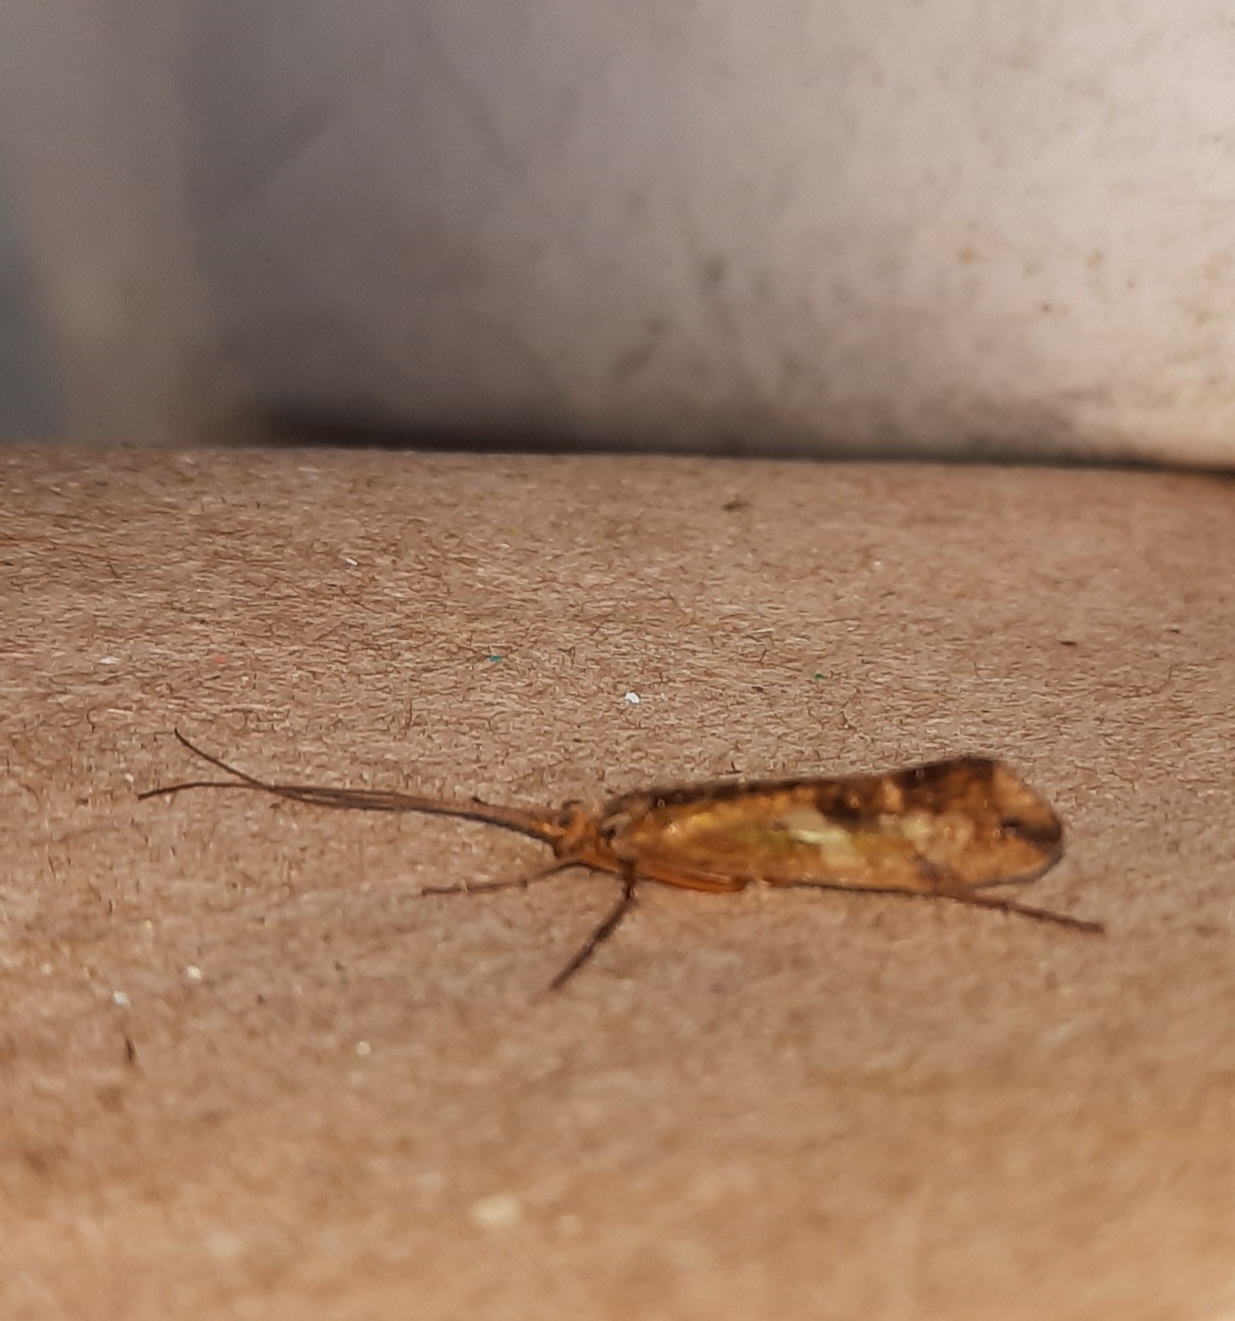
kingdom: Animalia
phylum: Arthropoda
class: Insecta
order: Trichoptera
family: Limnephilidae
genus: Limnephilus
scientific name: Limnephilus lunatus
